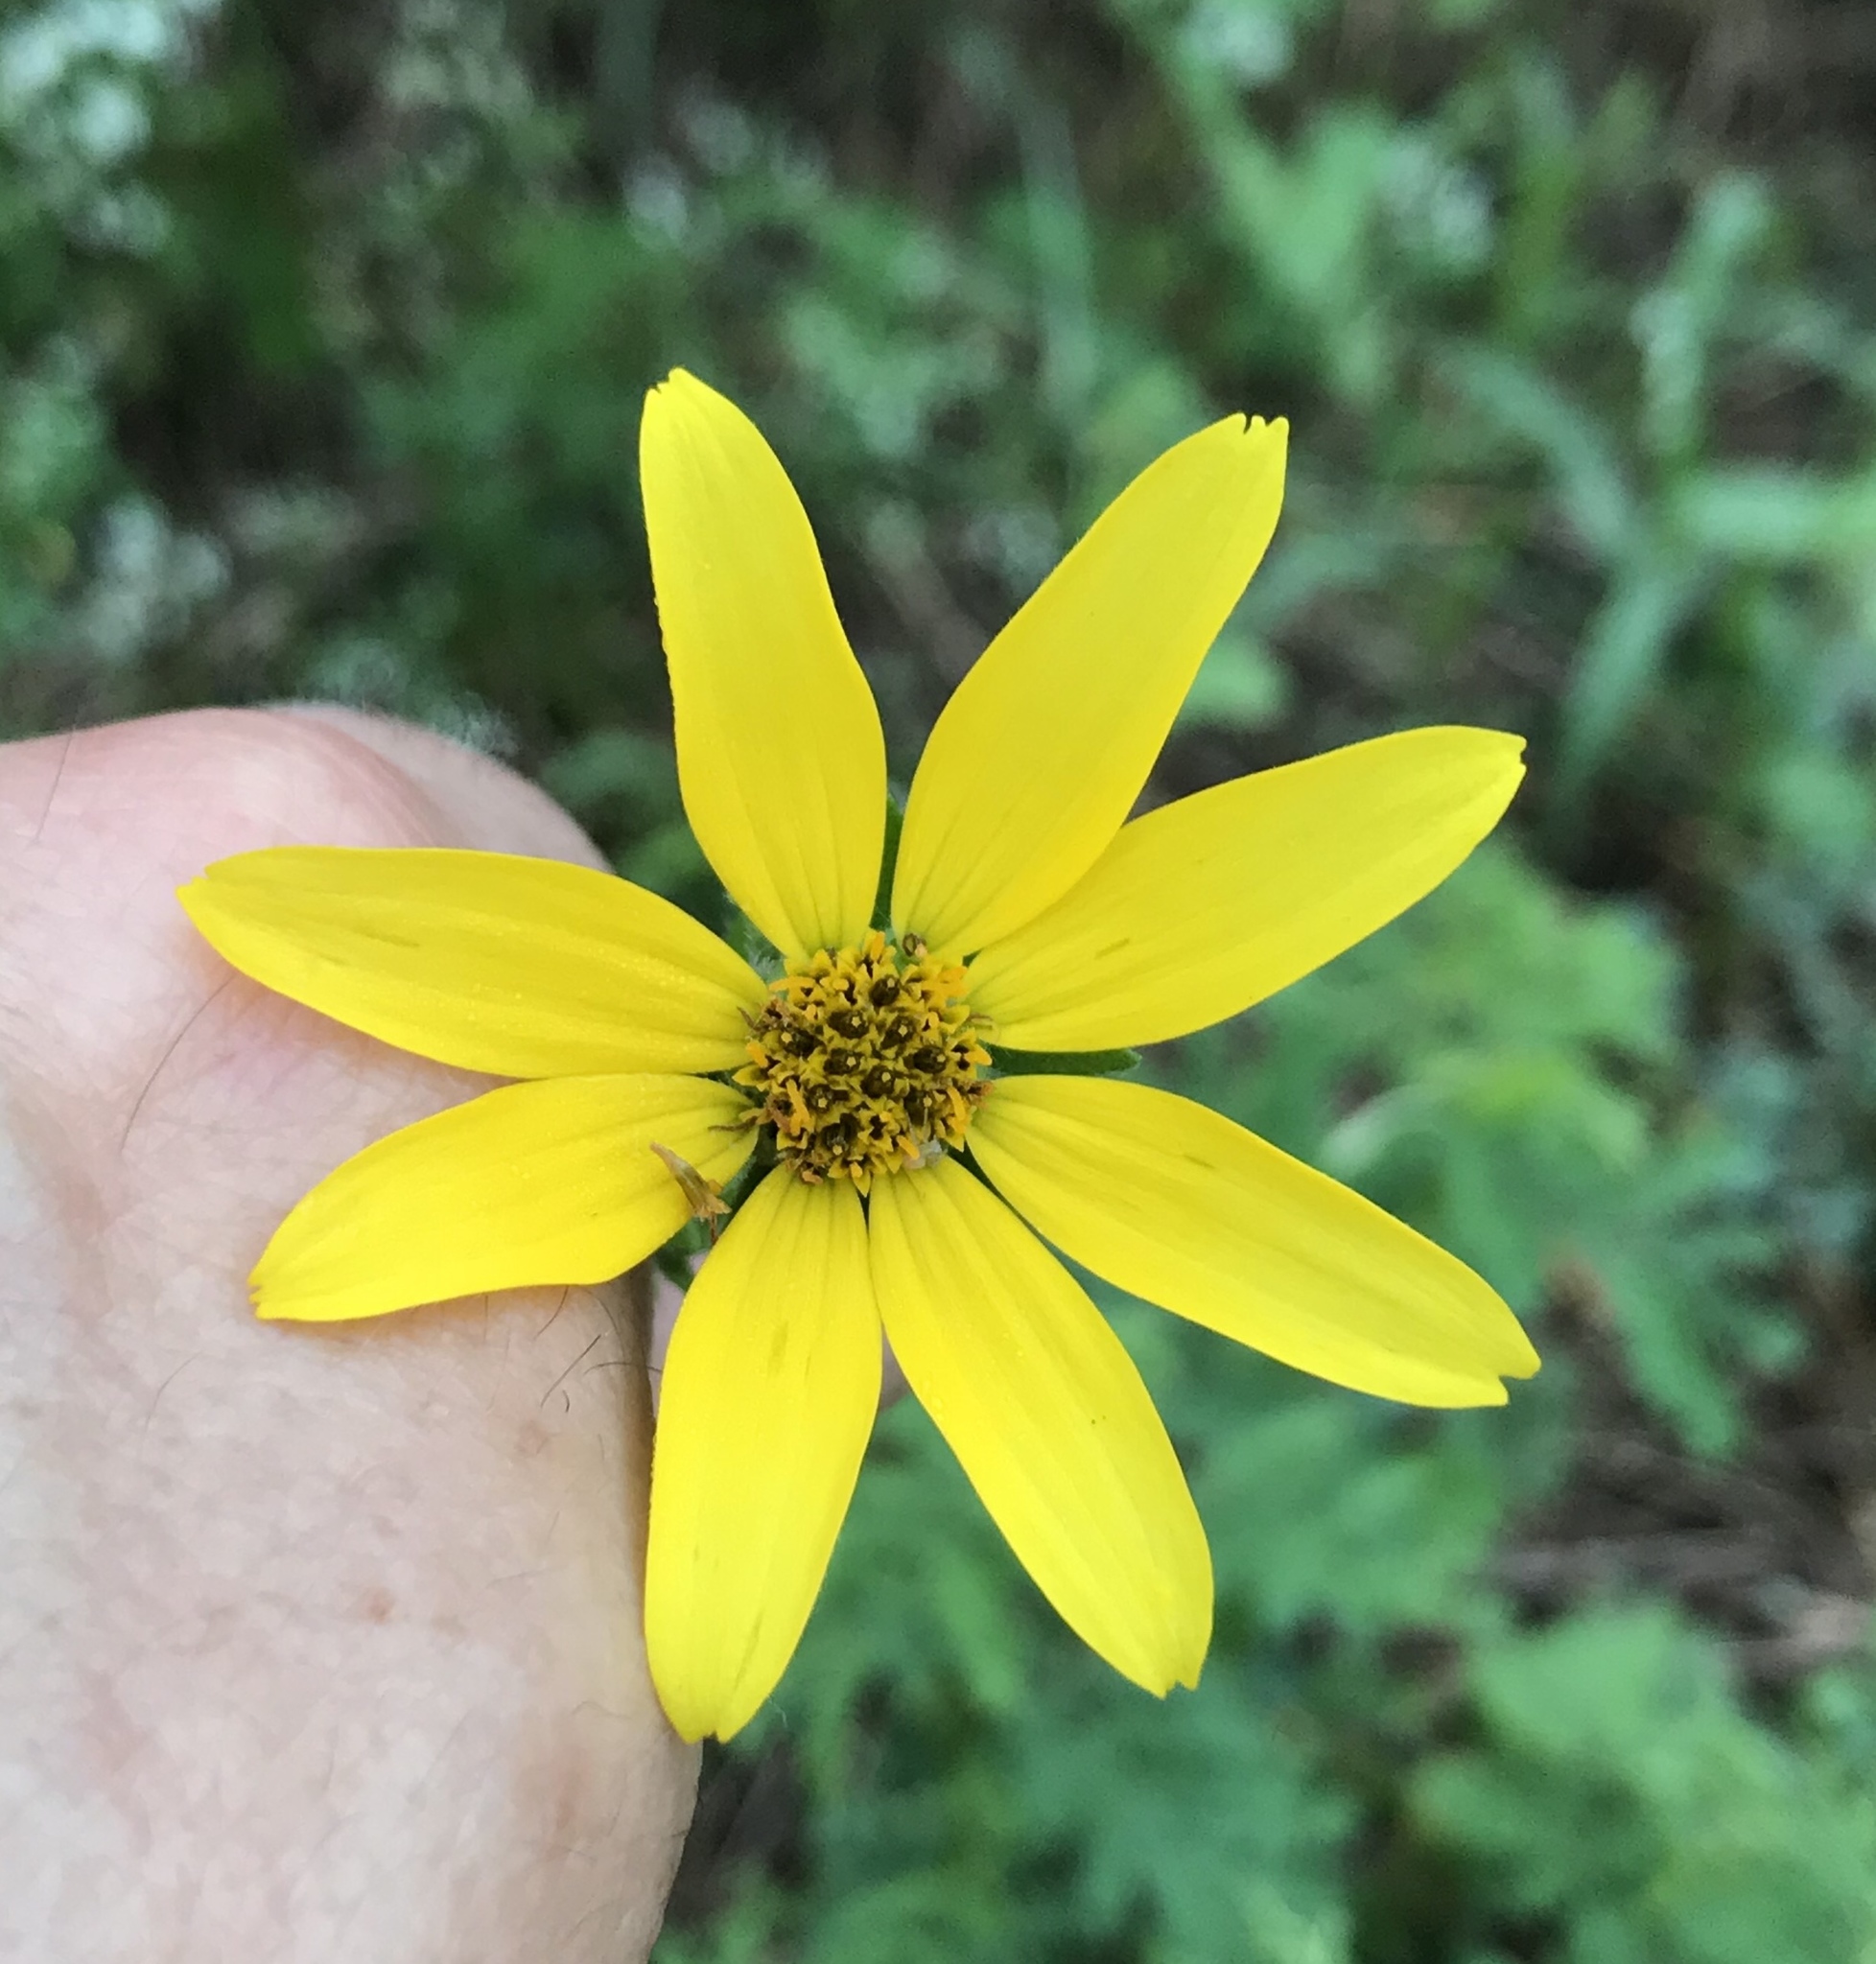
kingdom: Plantae
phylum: Tracheophyta
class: Magnoliopsida
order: Asterales
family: Asteraceae
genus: Engelmannia
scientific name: Engelmannia peristenia
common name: Engelmann's daisy
